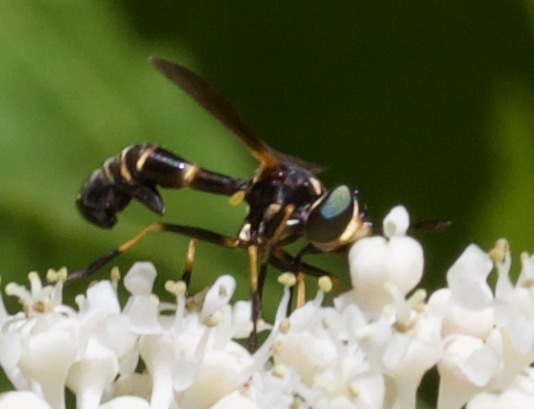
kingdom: Animalia
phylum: Arthropoda
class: Insecta
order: Diptera
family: Conopidae
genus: Physoconops
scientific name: Physoconops obscuripennis
